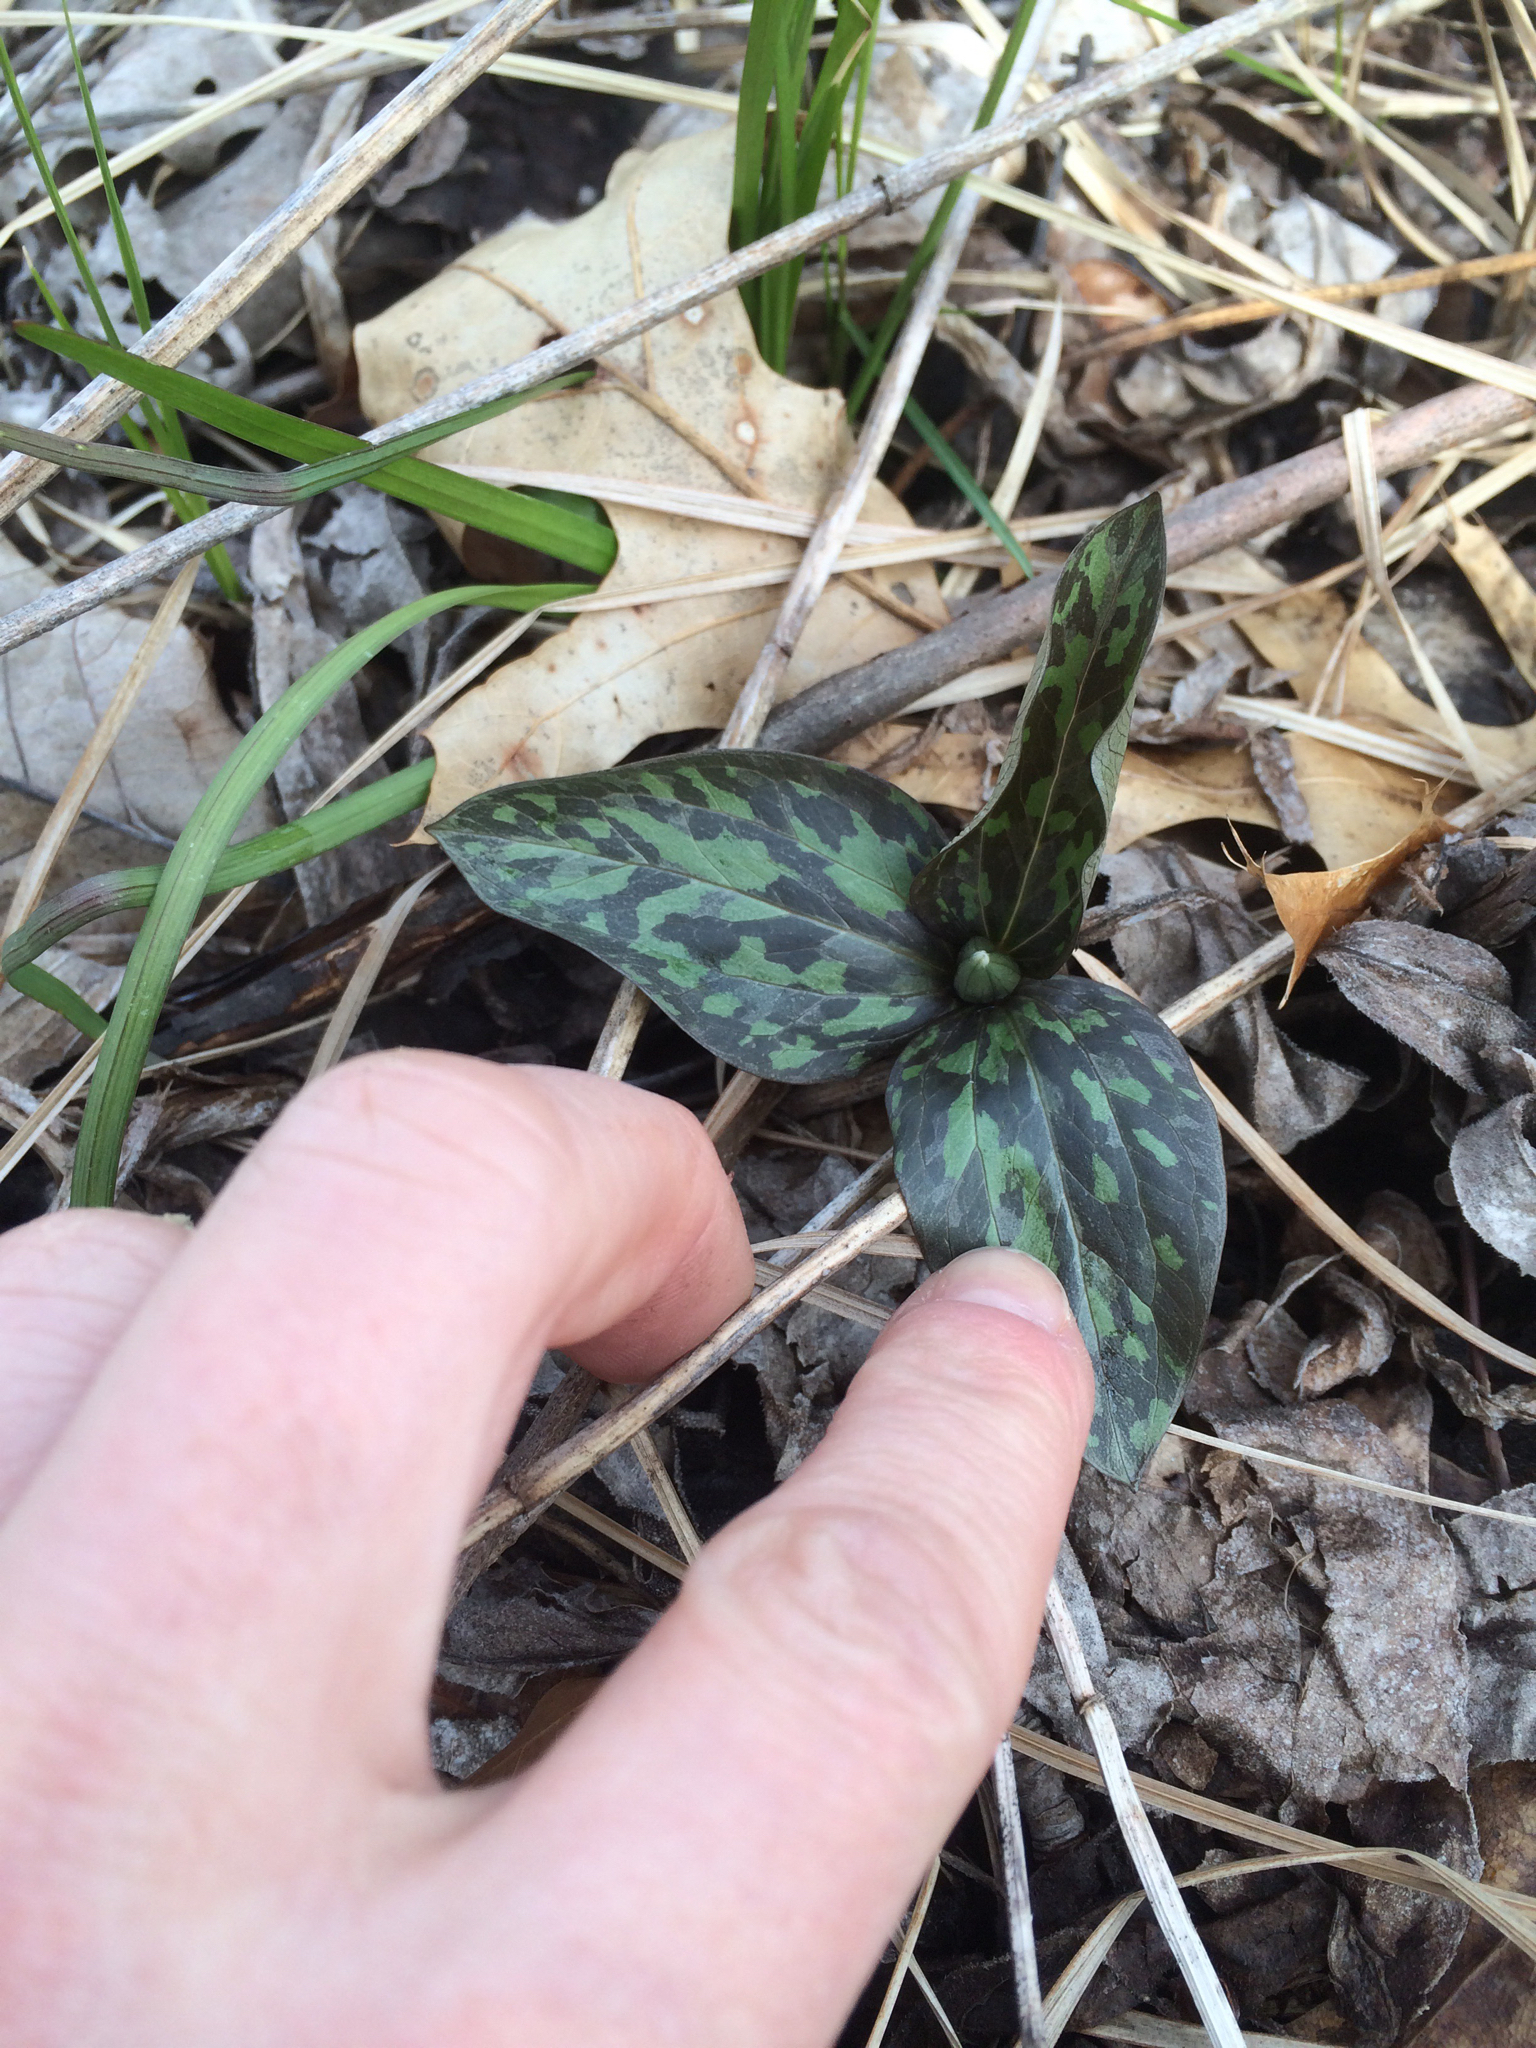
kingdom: Plantae
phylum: Tracheophyta
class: Liliopsida
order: Liliales
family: Melanthiaceae
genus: Trillium
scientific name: Trillium recurvatum
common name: Bloody butcher
